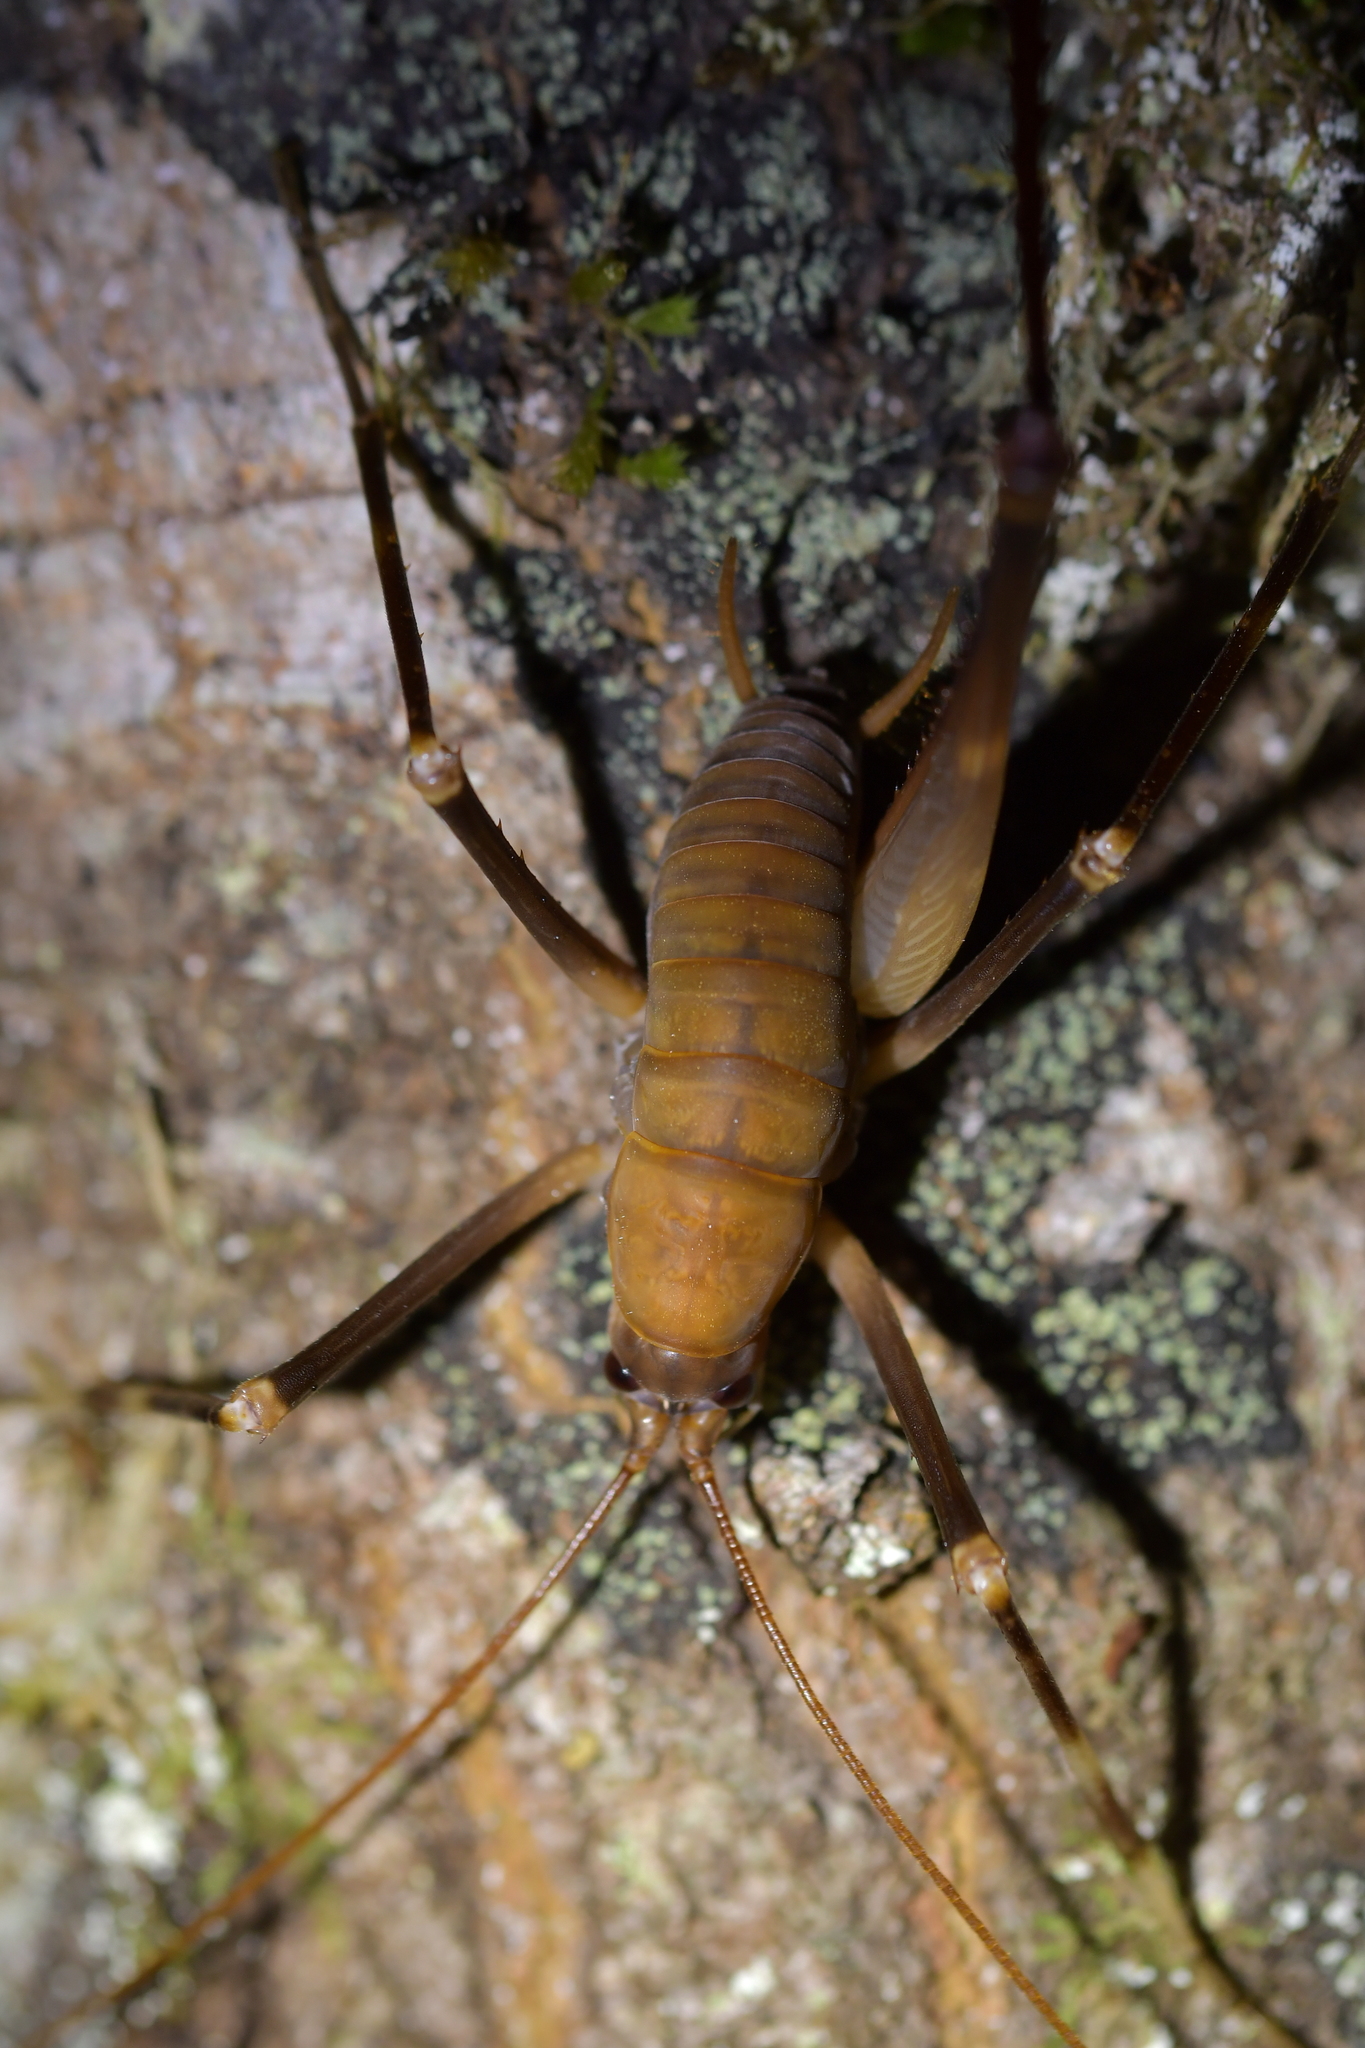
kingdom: Animalia
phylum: Arthropoda
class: Insecta
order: Orthoptera
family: Rhaphidophoridae
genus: Pachyrhamma
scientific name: Pachyrhamma longipes
